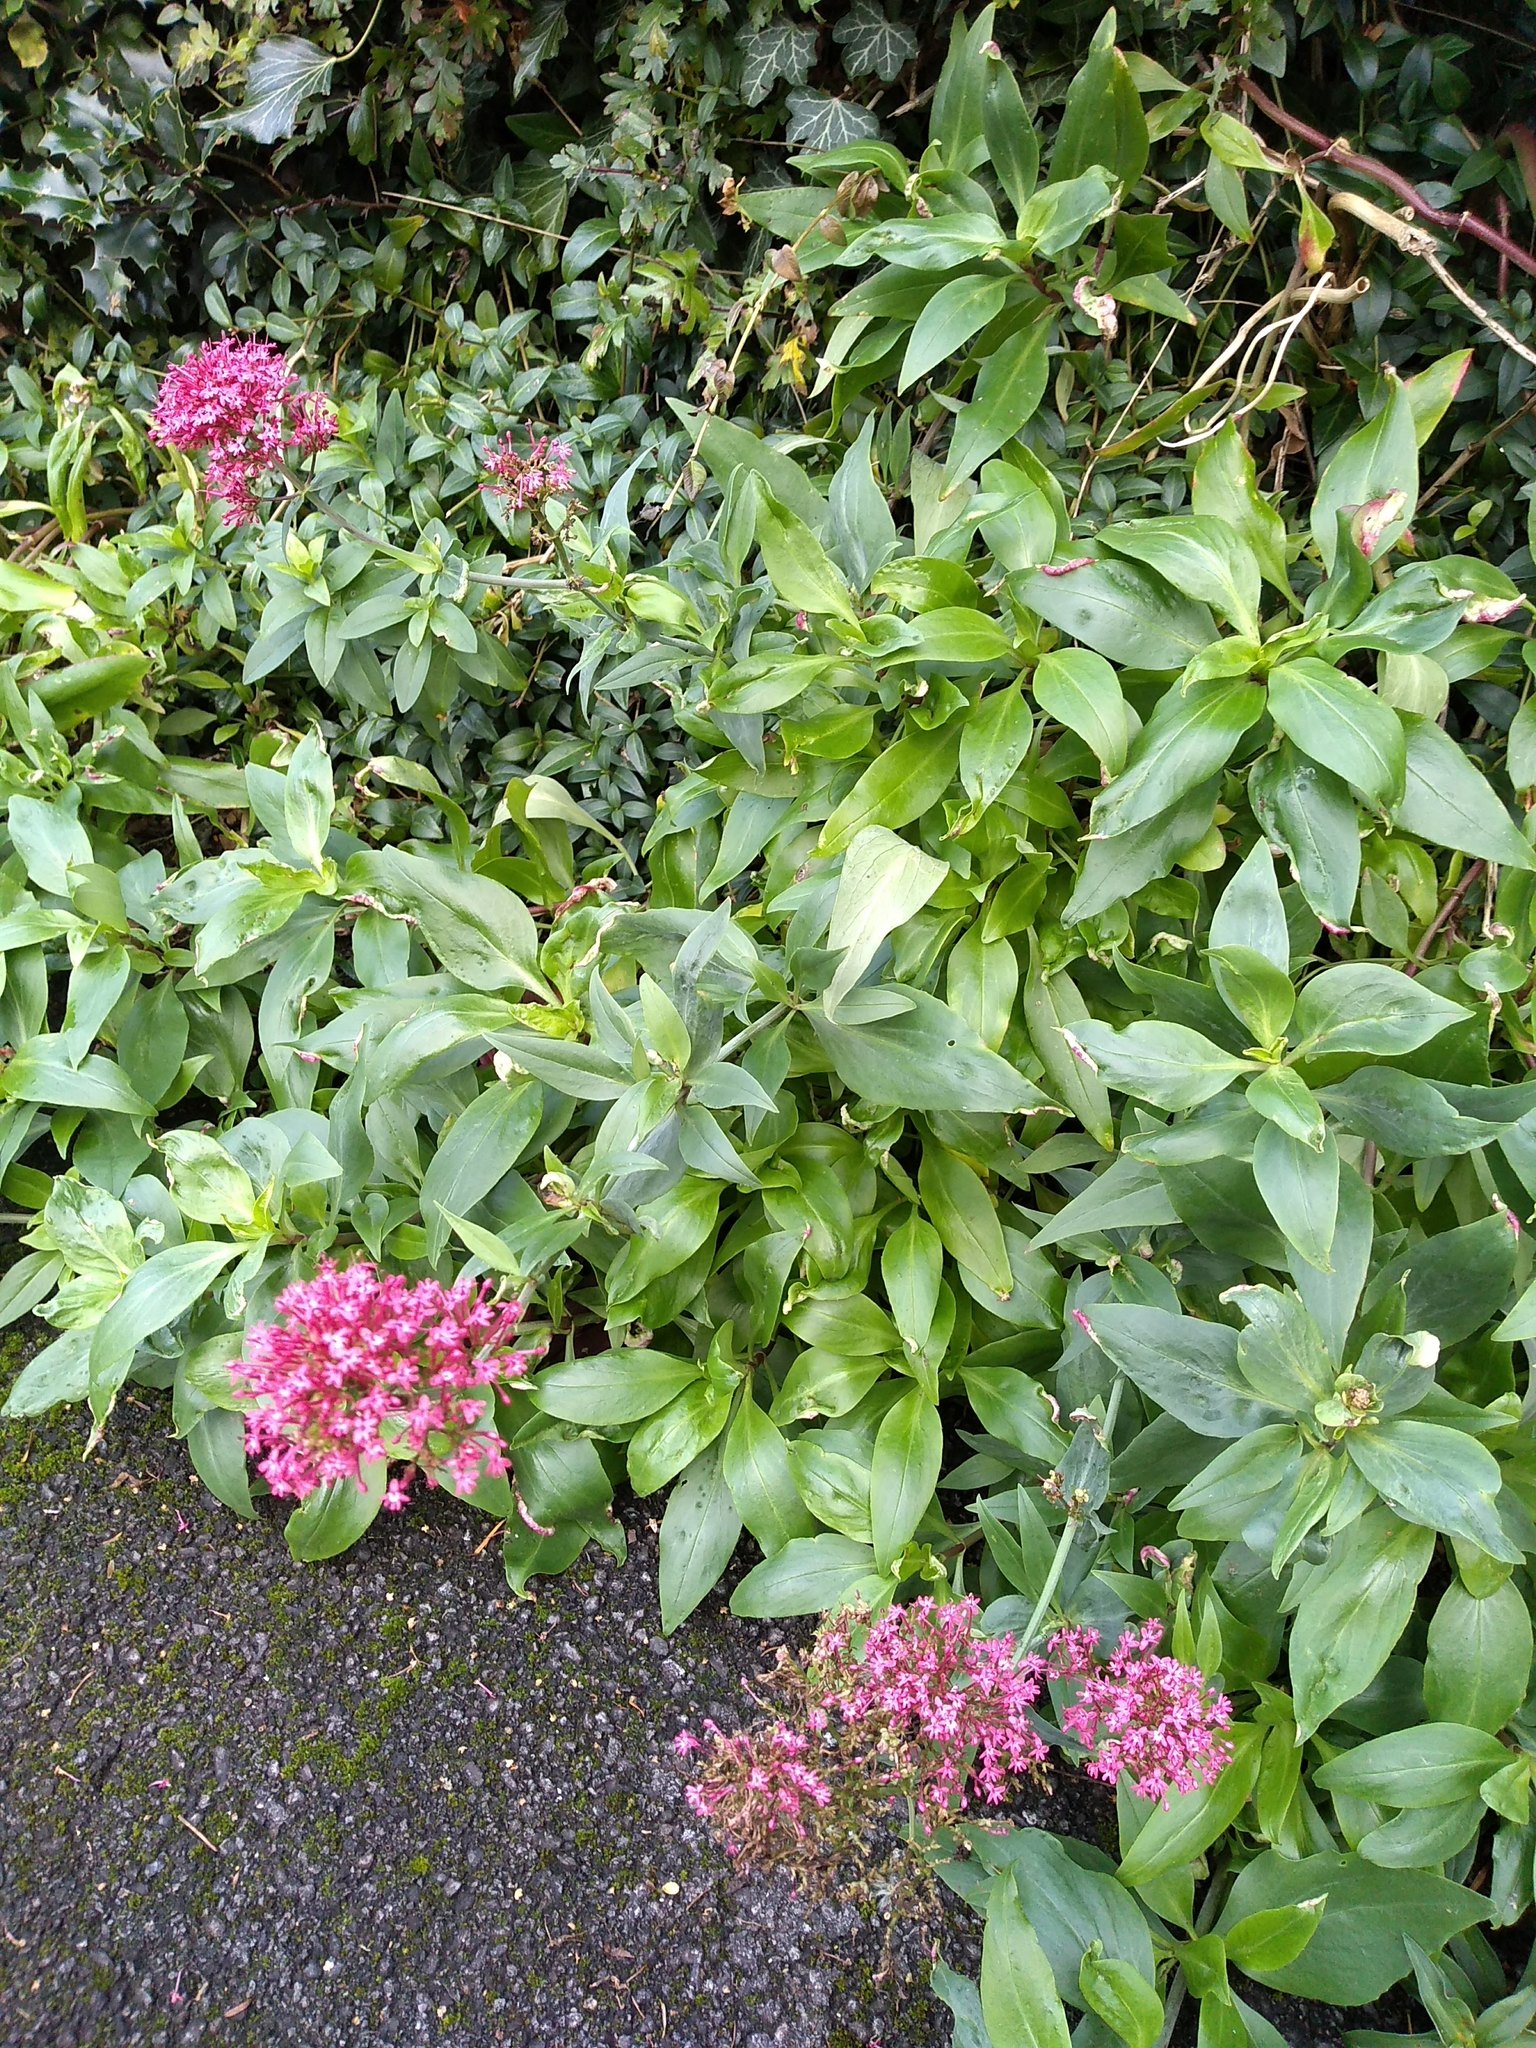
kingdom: Plantae
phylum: Tracheophyta
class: Magnoliopsida
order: Dipsacales
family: Caprifoliaceae
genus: Centranthus
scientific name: Centranthus ruber
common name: Red valerian
